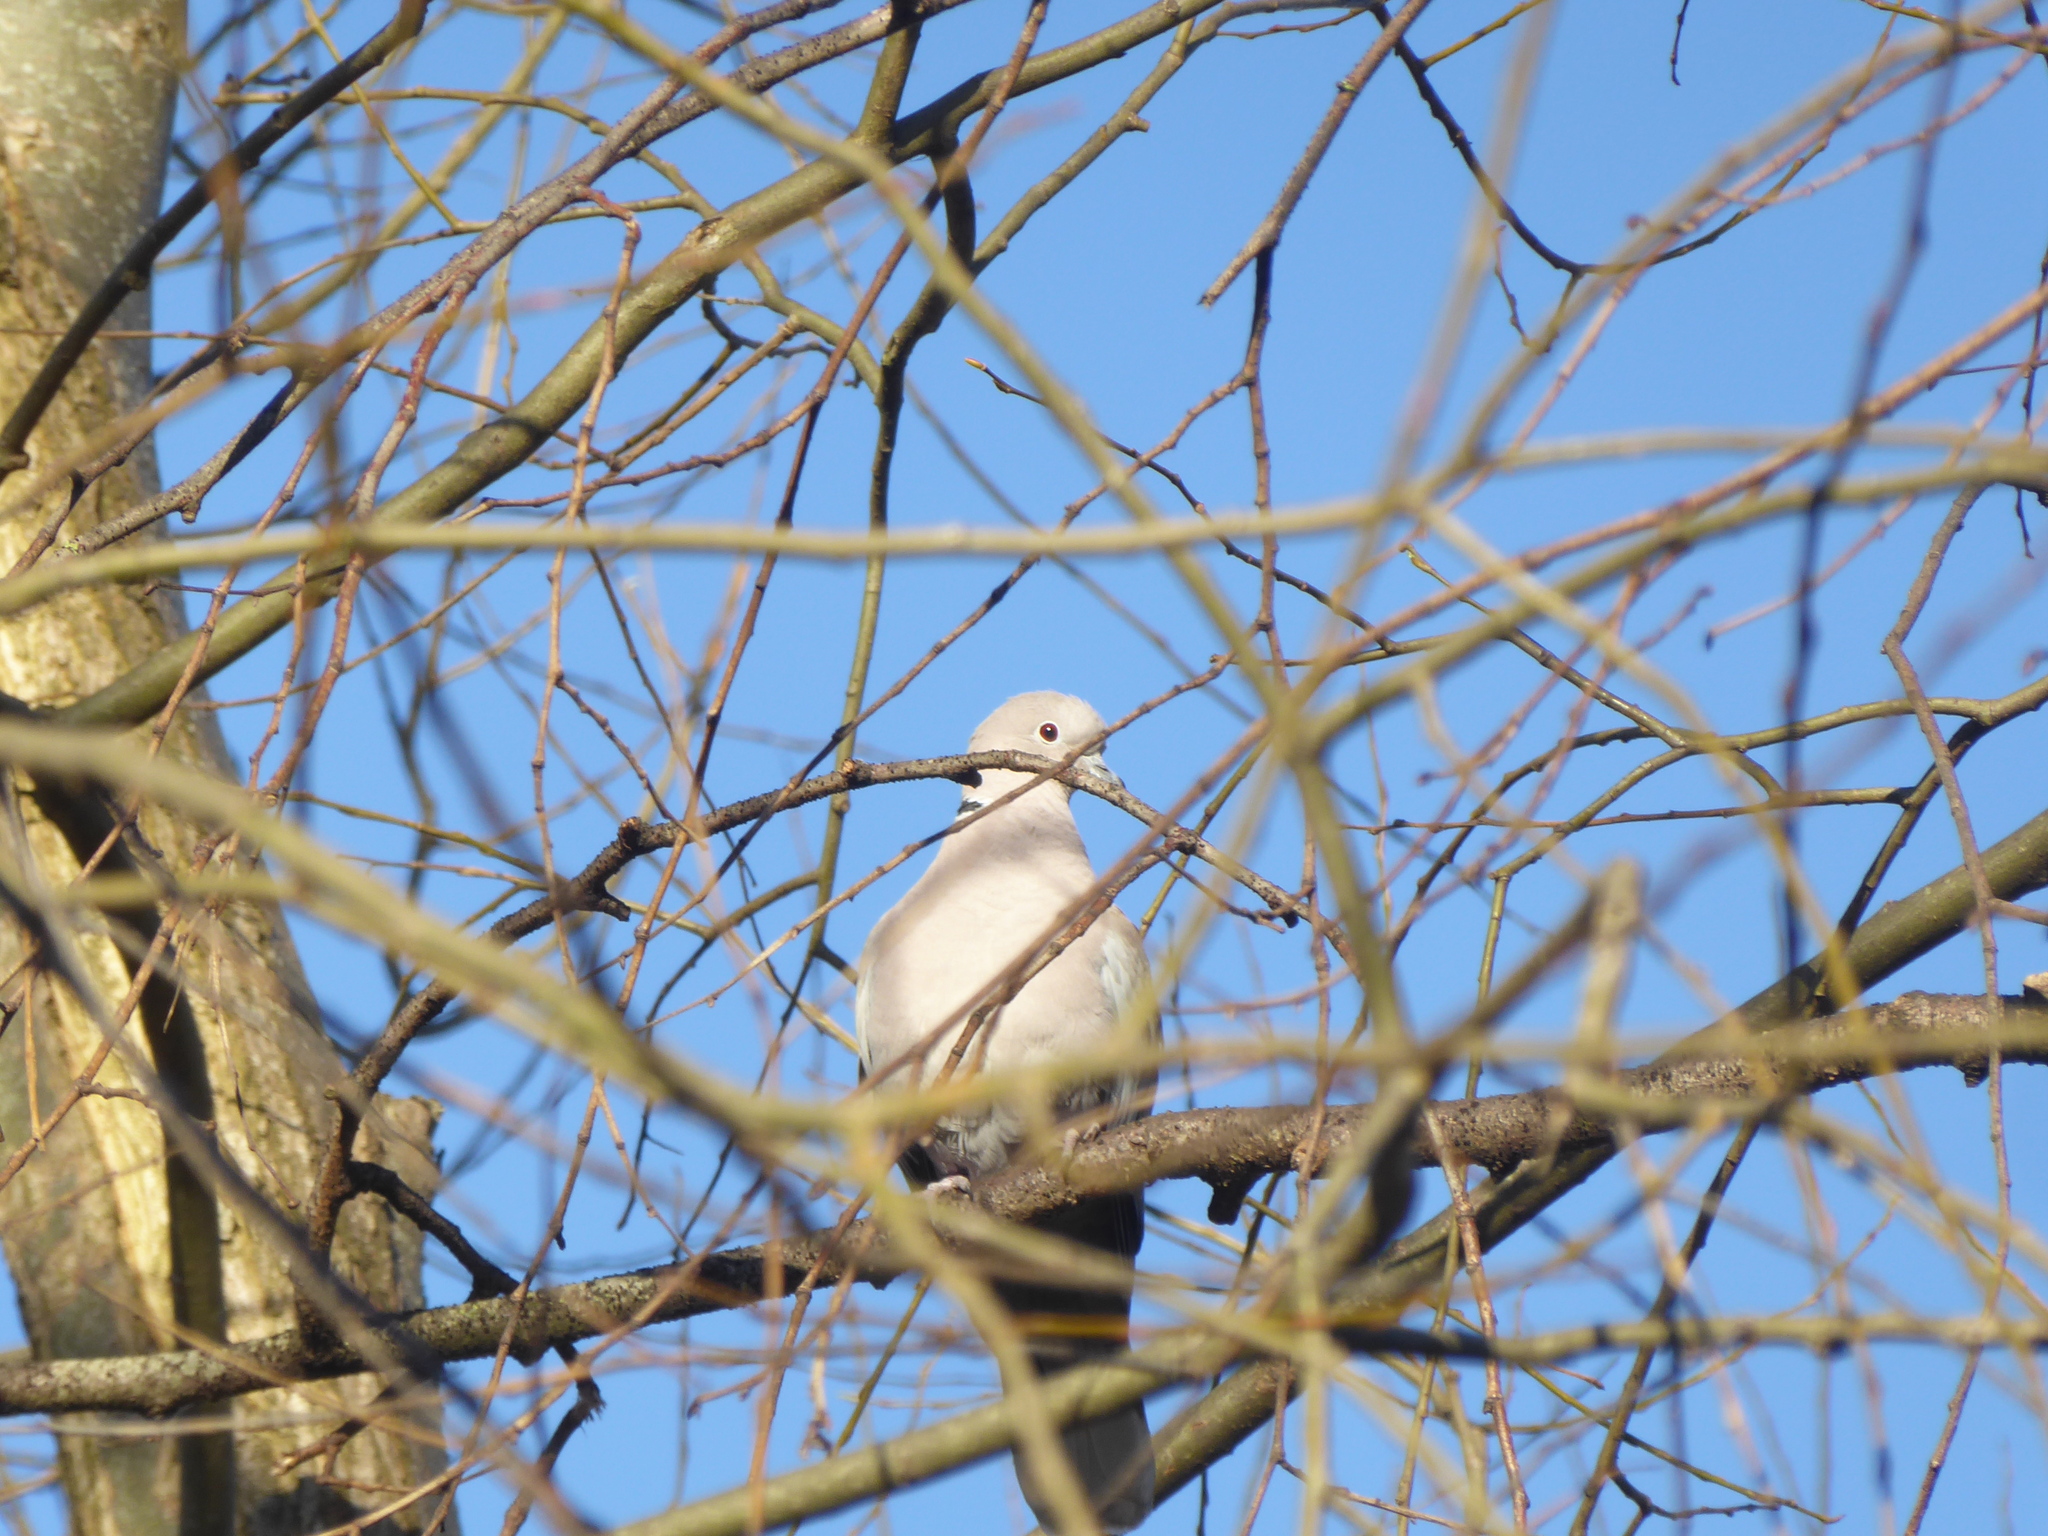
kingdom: Animalia
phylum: Chordata
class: Aves
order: Columbiformes
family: Columbidae
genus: Streptopelia
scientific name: Streptopelia decaocto
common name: Eurasian collared dove
